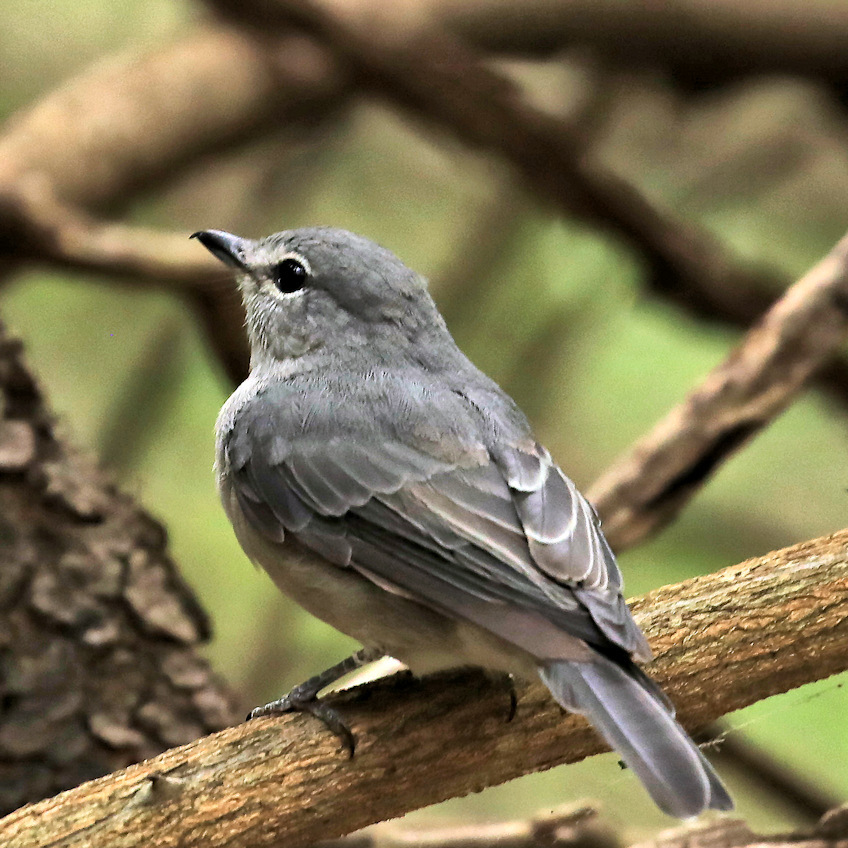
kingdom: Animalia
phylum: Chordata
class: Aves
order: Passeriformes
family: Muscicapidae
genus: Muscicapa
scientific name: Muscicapa caerulescens
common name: Ashy flycatcher
